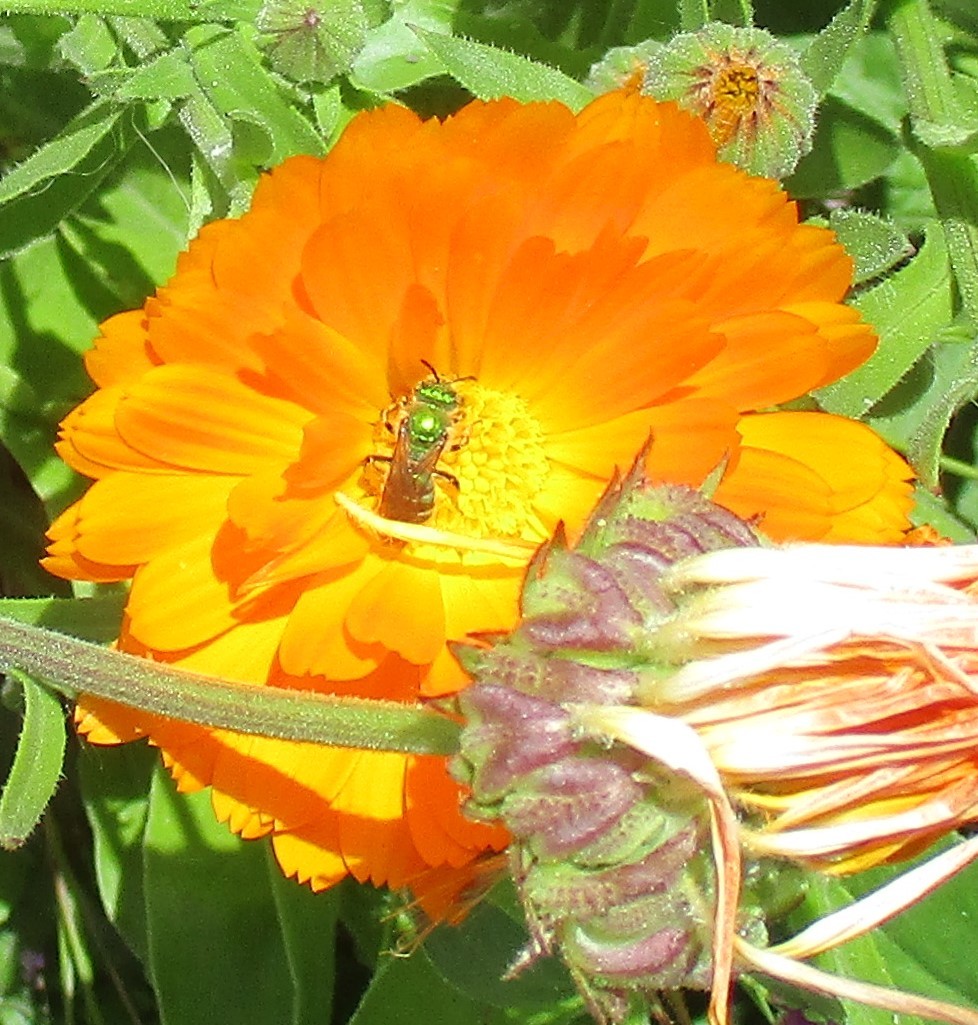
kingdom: Animalia
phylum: Arthropoda
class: Insecta
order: Hymenoptera
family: Halictidae
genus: Agapostemon
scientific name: Agapostemon texanus
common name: Texas striped sweat bee
